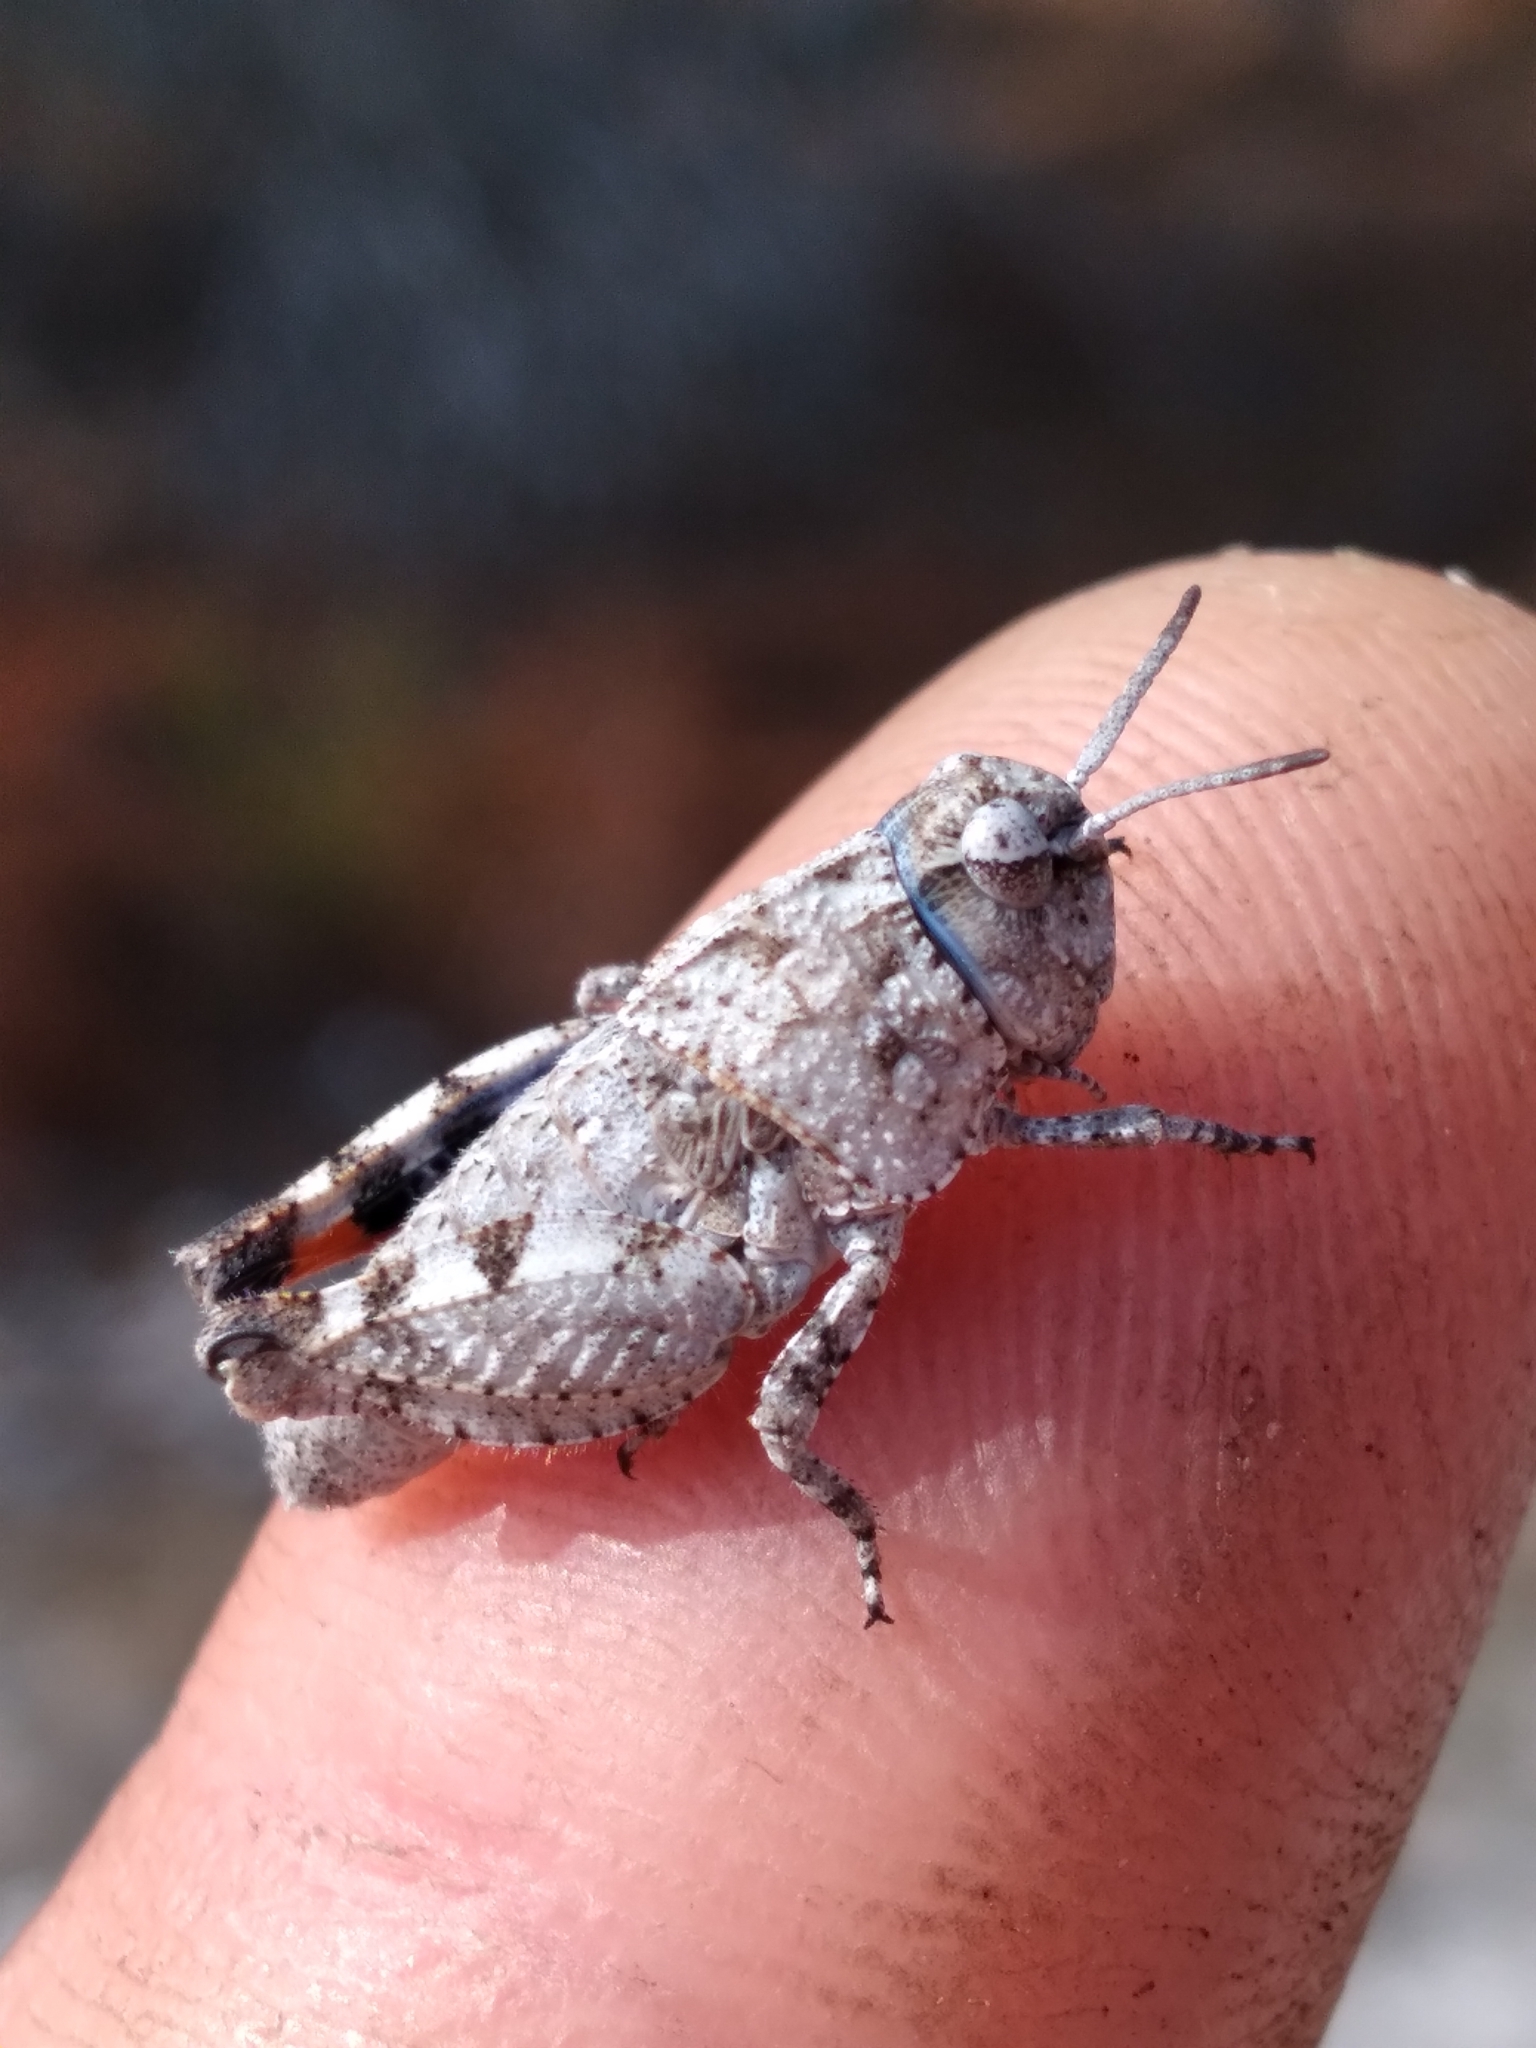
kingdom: Animalia
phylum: Arthropoda
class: Insecta
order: Orthoptera
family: Acrididae
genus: Pardalophora
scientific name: Pardalophora phoenicoptera
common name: Orange-winged grasshopper
